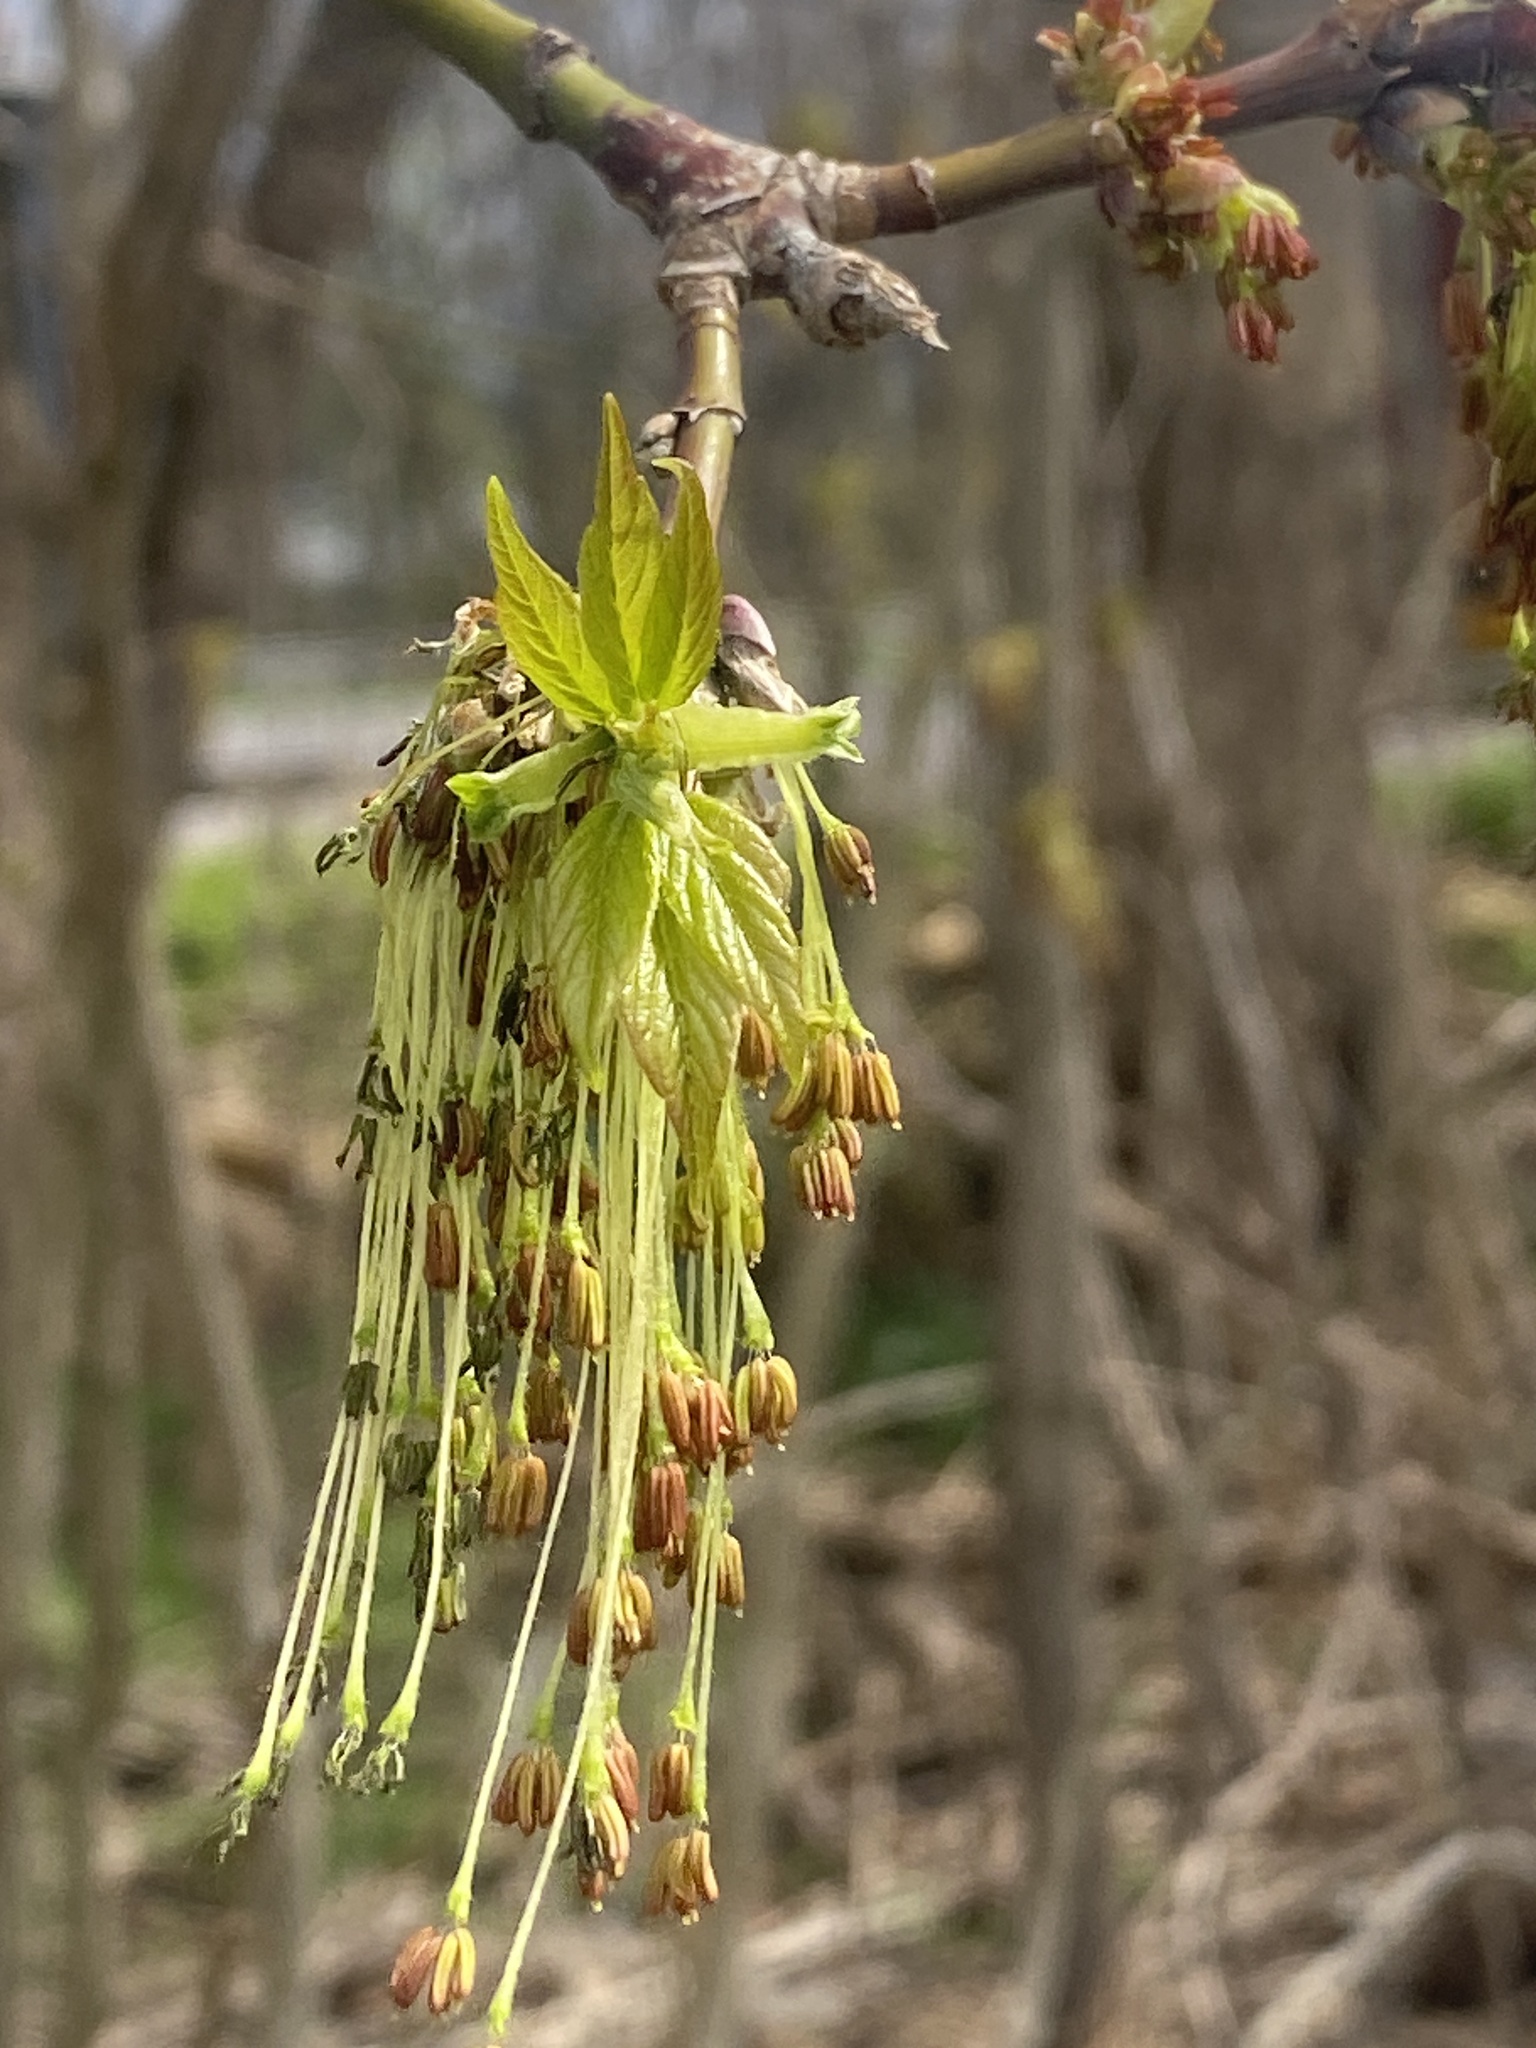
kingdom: Plantae
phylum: Tracheophyta
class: Magnoliopsida
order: Sapindales
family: Sapindaceae
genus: Acer
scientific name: Acer negundo
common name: Ashleaf maple
